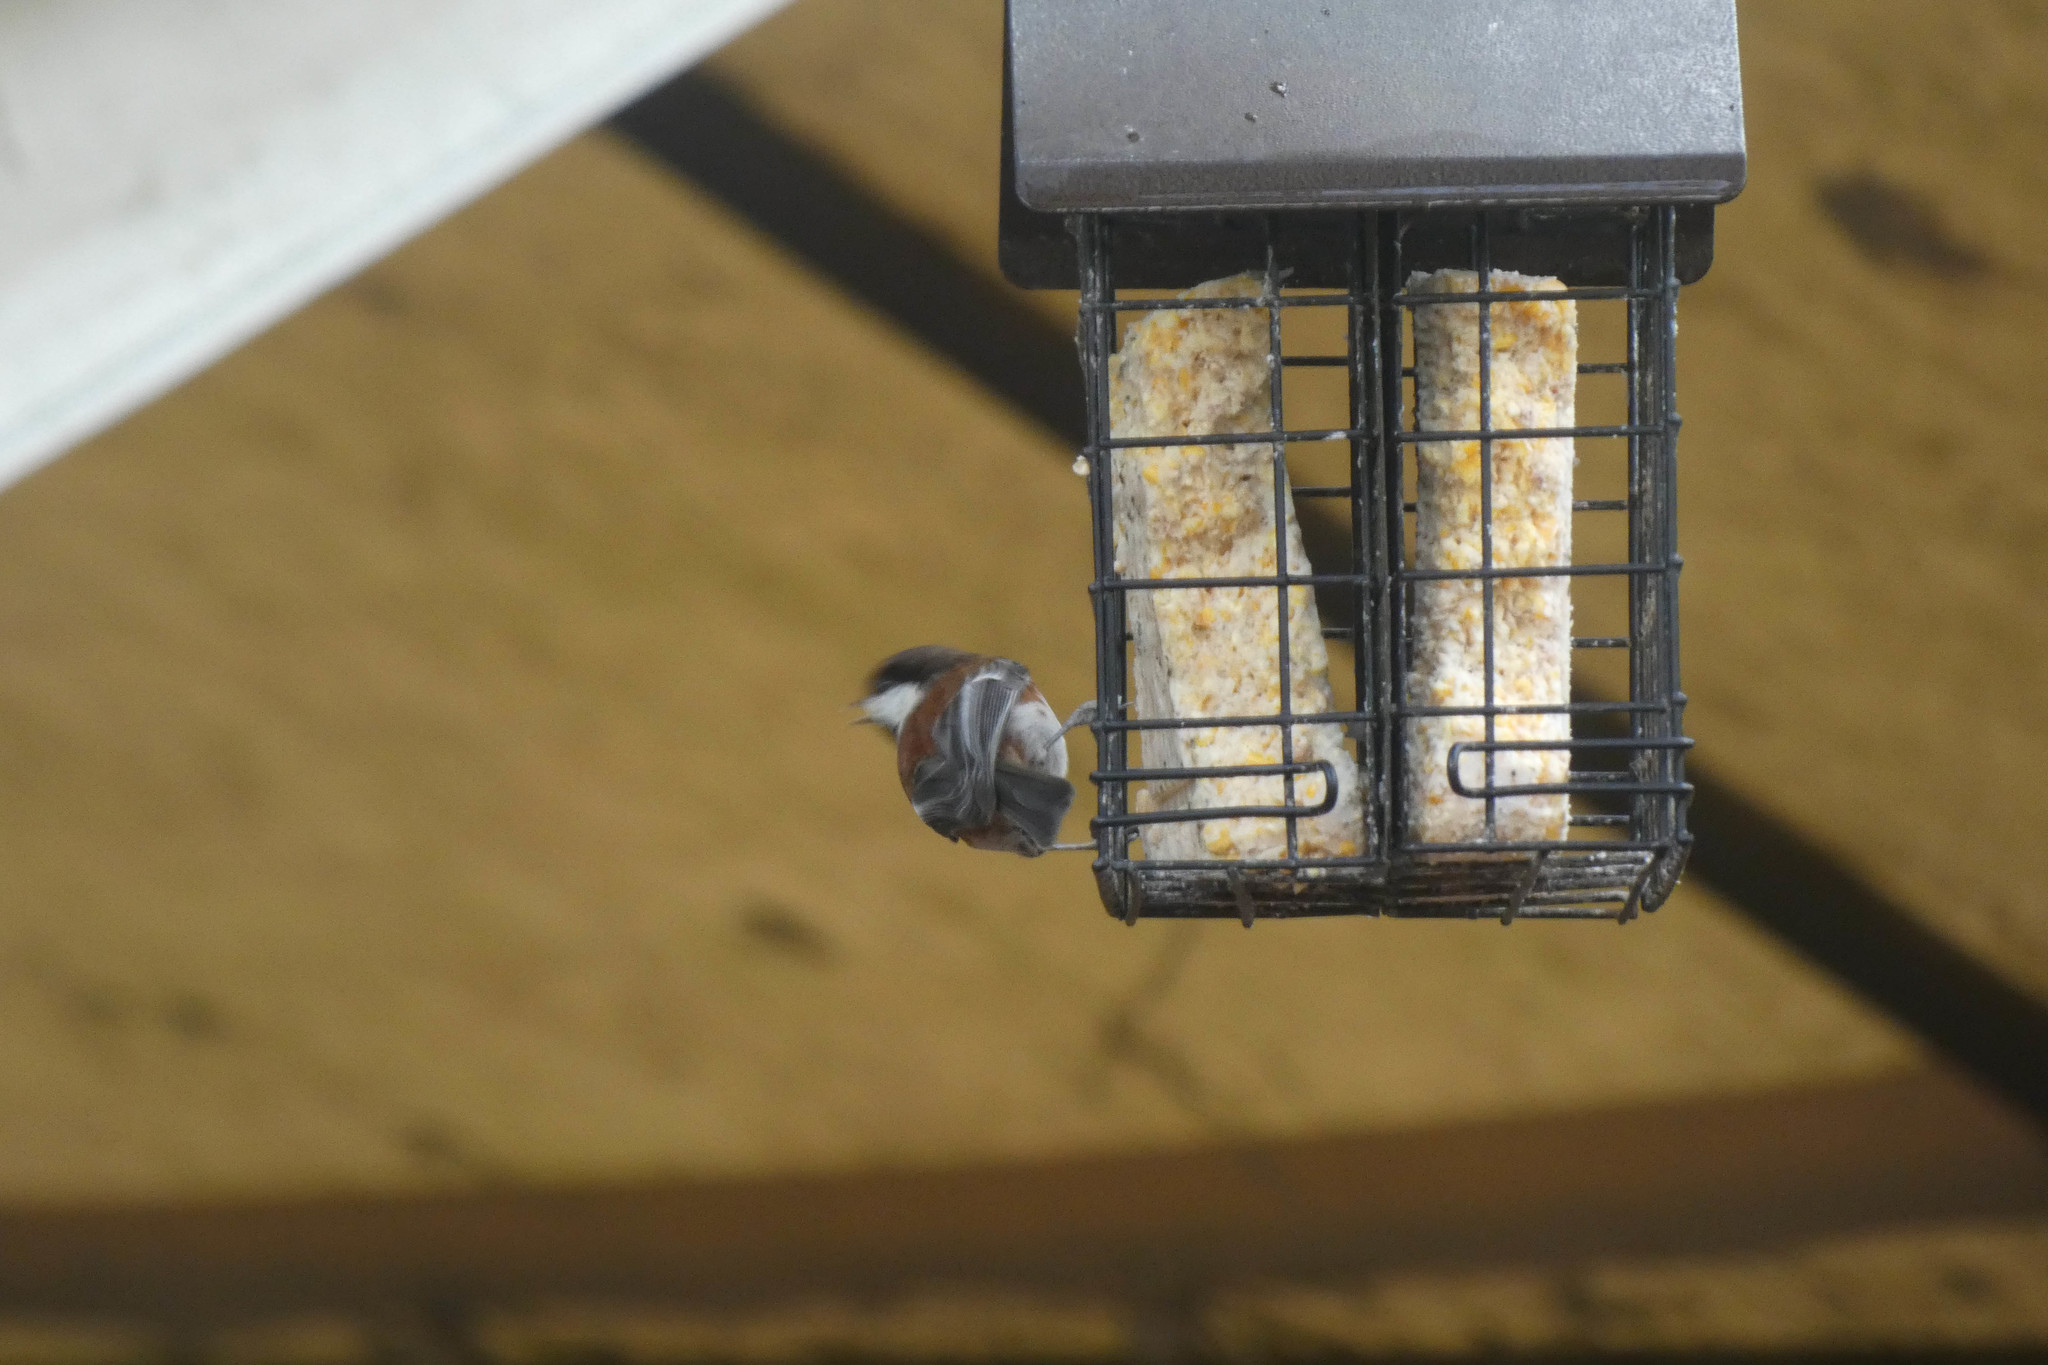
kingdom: Animalia
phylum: Chordata
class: Aves
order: Passeriformes
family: Paridae
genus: Poecile
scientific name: Poecile rufescens
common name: Chestnut-backed chickadee
